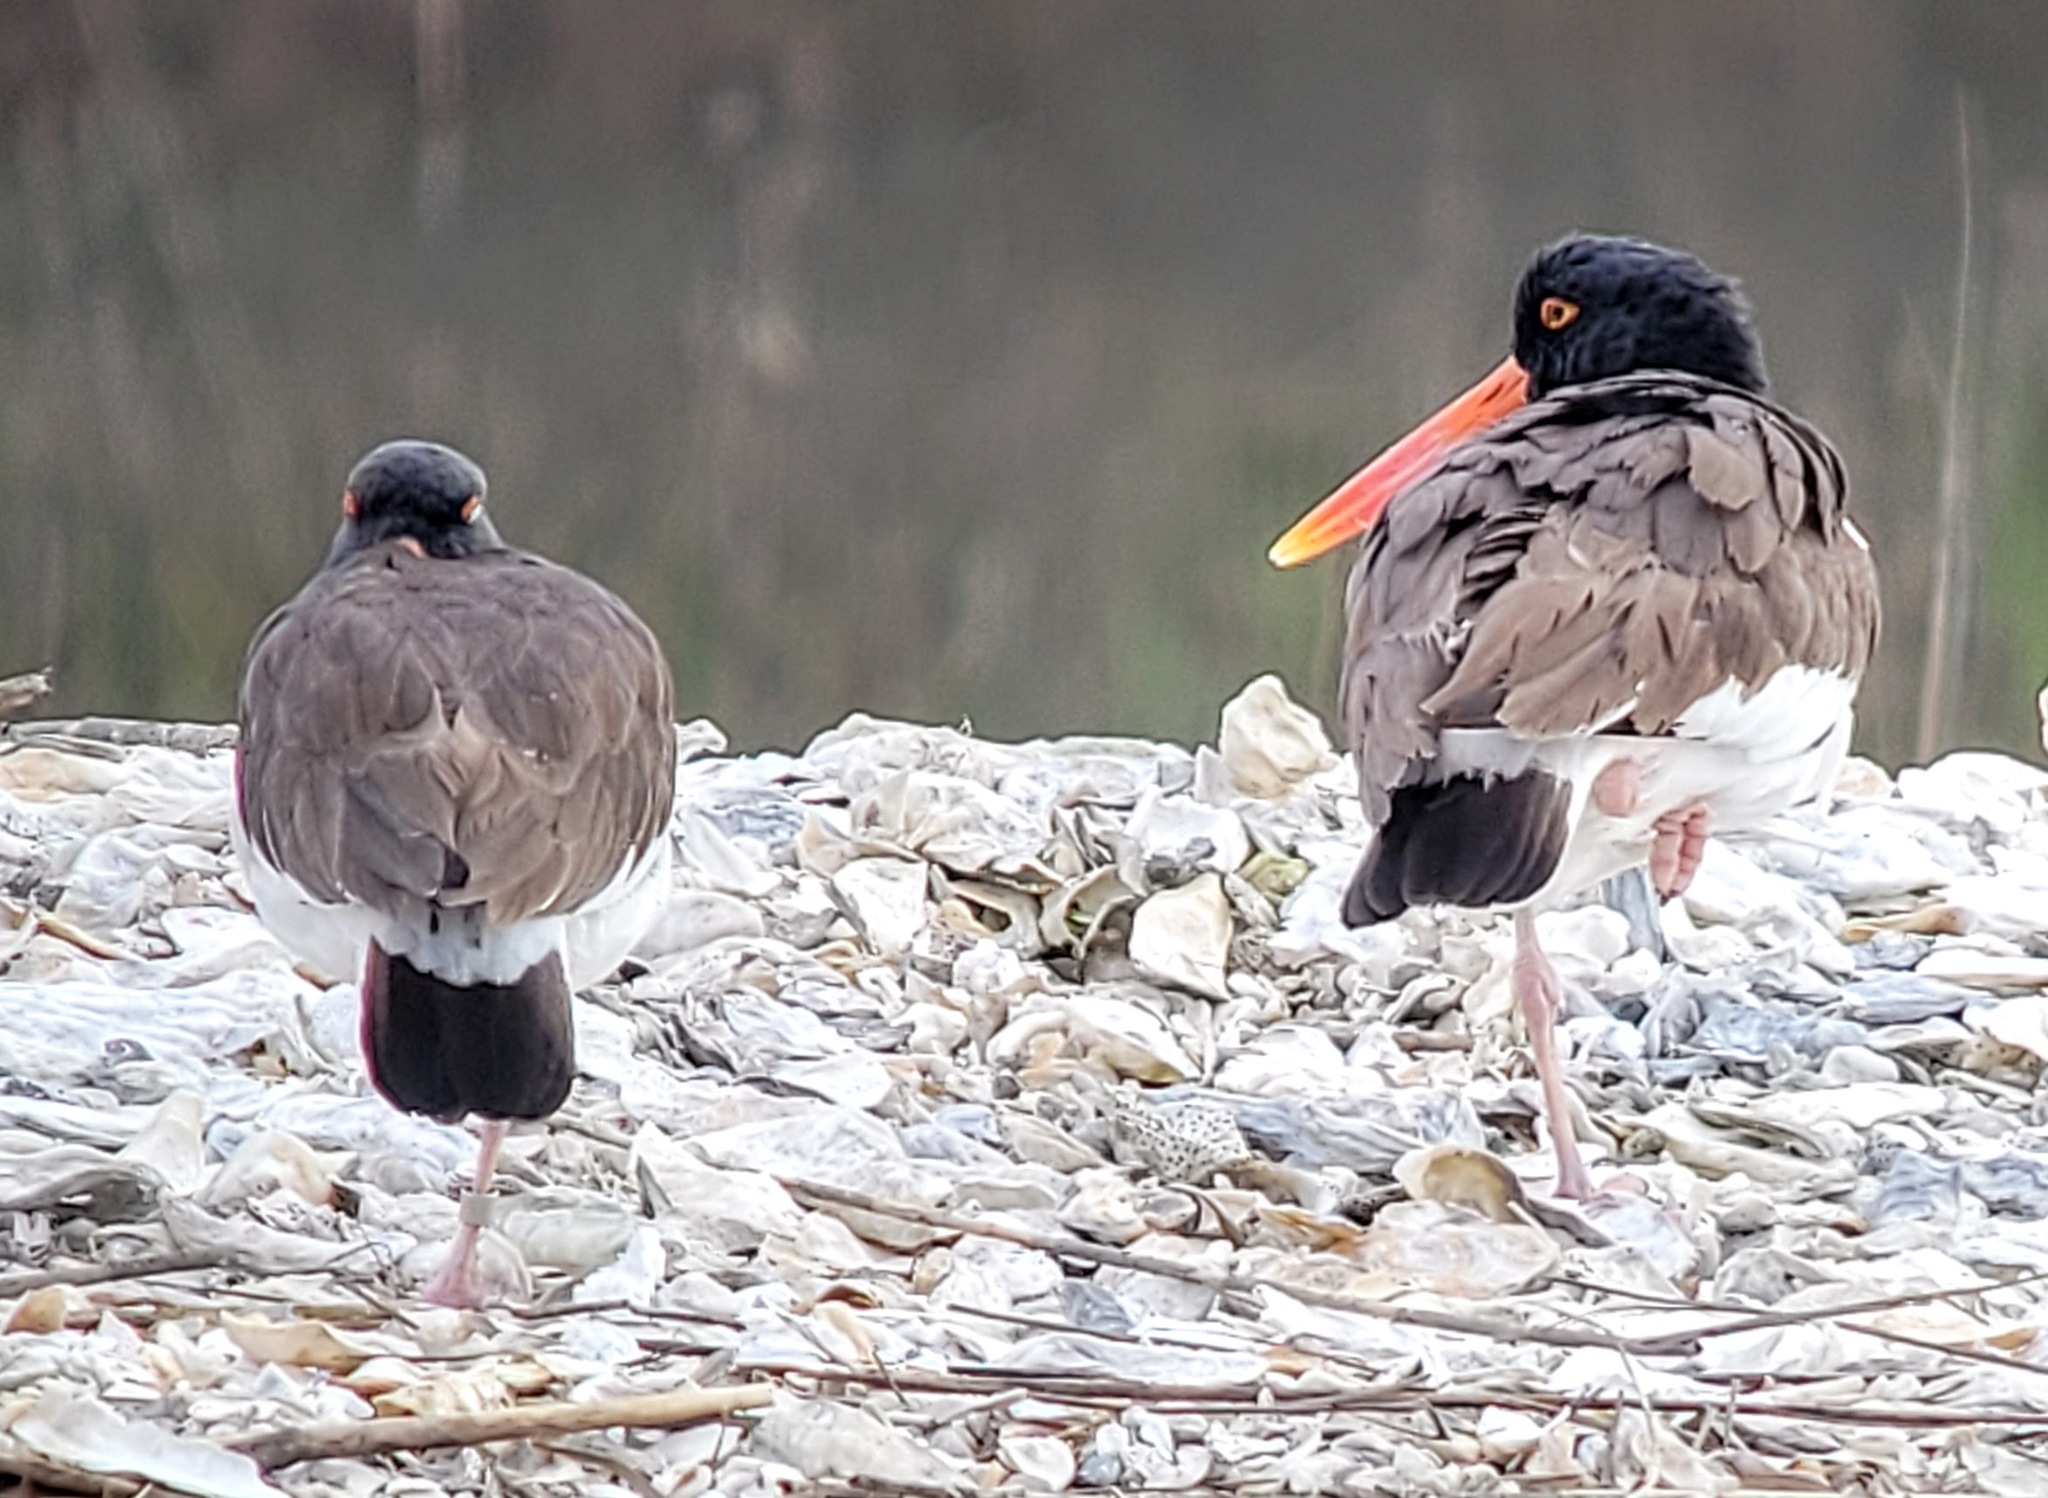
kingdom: Animalia
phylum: Chordata
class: Aves
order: Charadriiformes
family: Haematopodidae
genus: Haematopus
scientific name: Haematopus palliatus
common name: American oystercatcher
